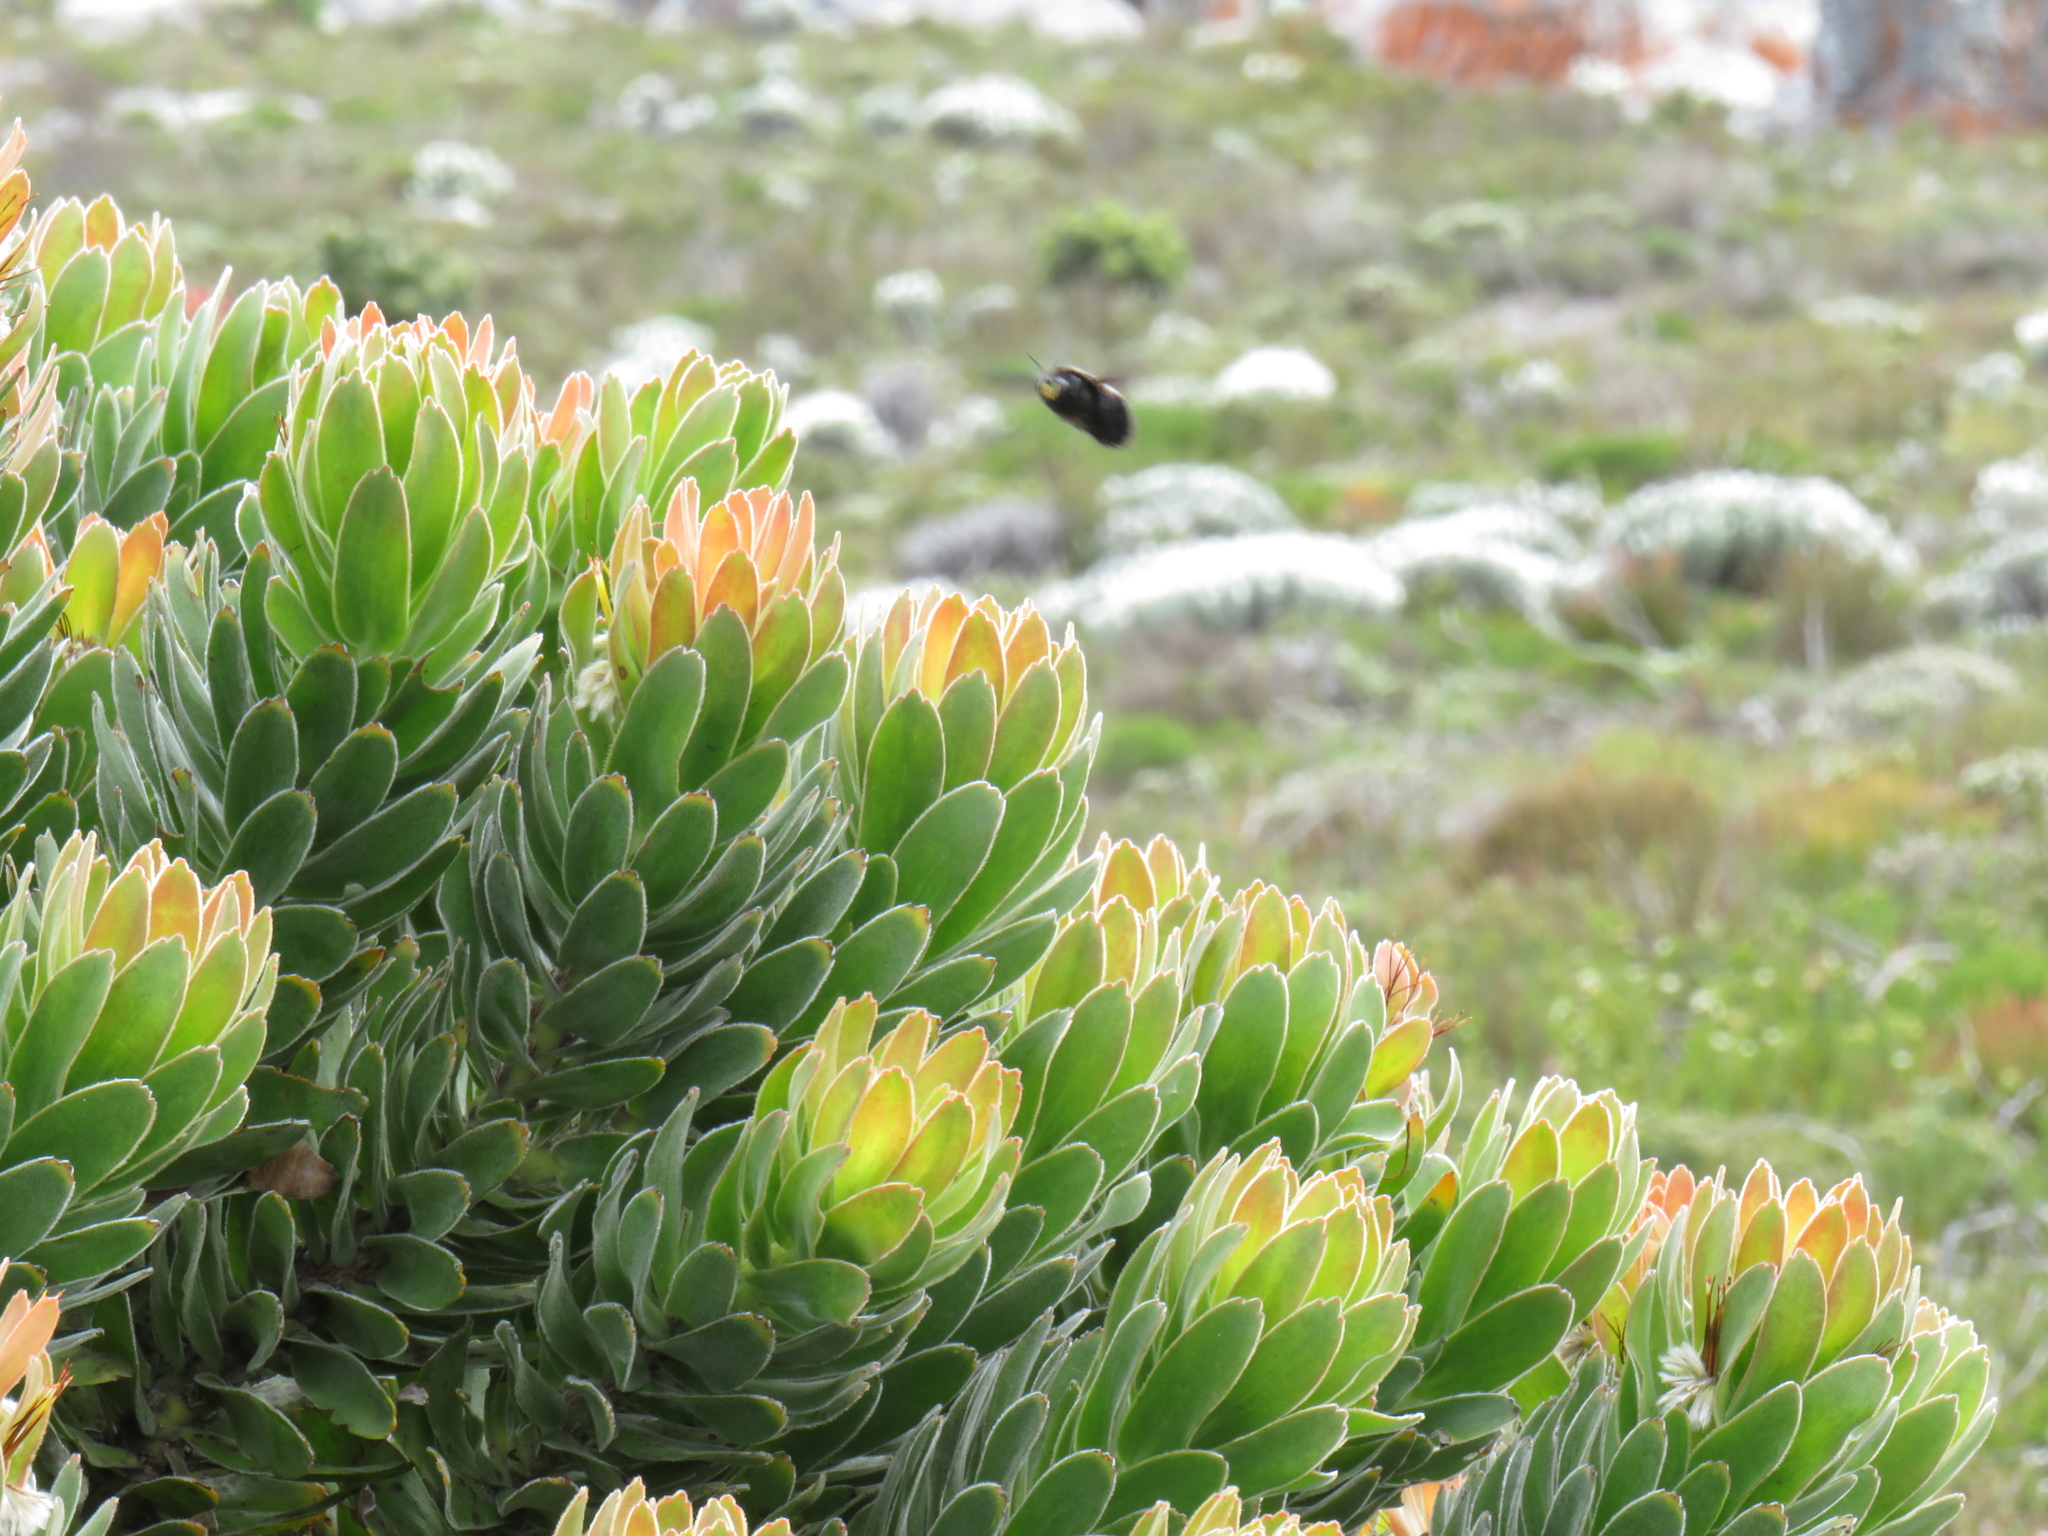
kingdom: Animalia
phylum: Arthropoda
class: Insecta
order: Hymenoptera
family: Apidae
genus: Xylocopa
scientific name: Xylocopa capitata
